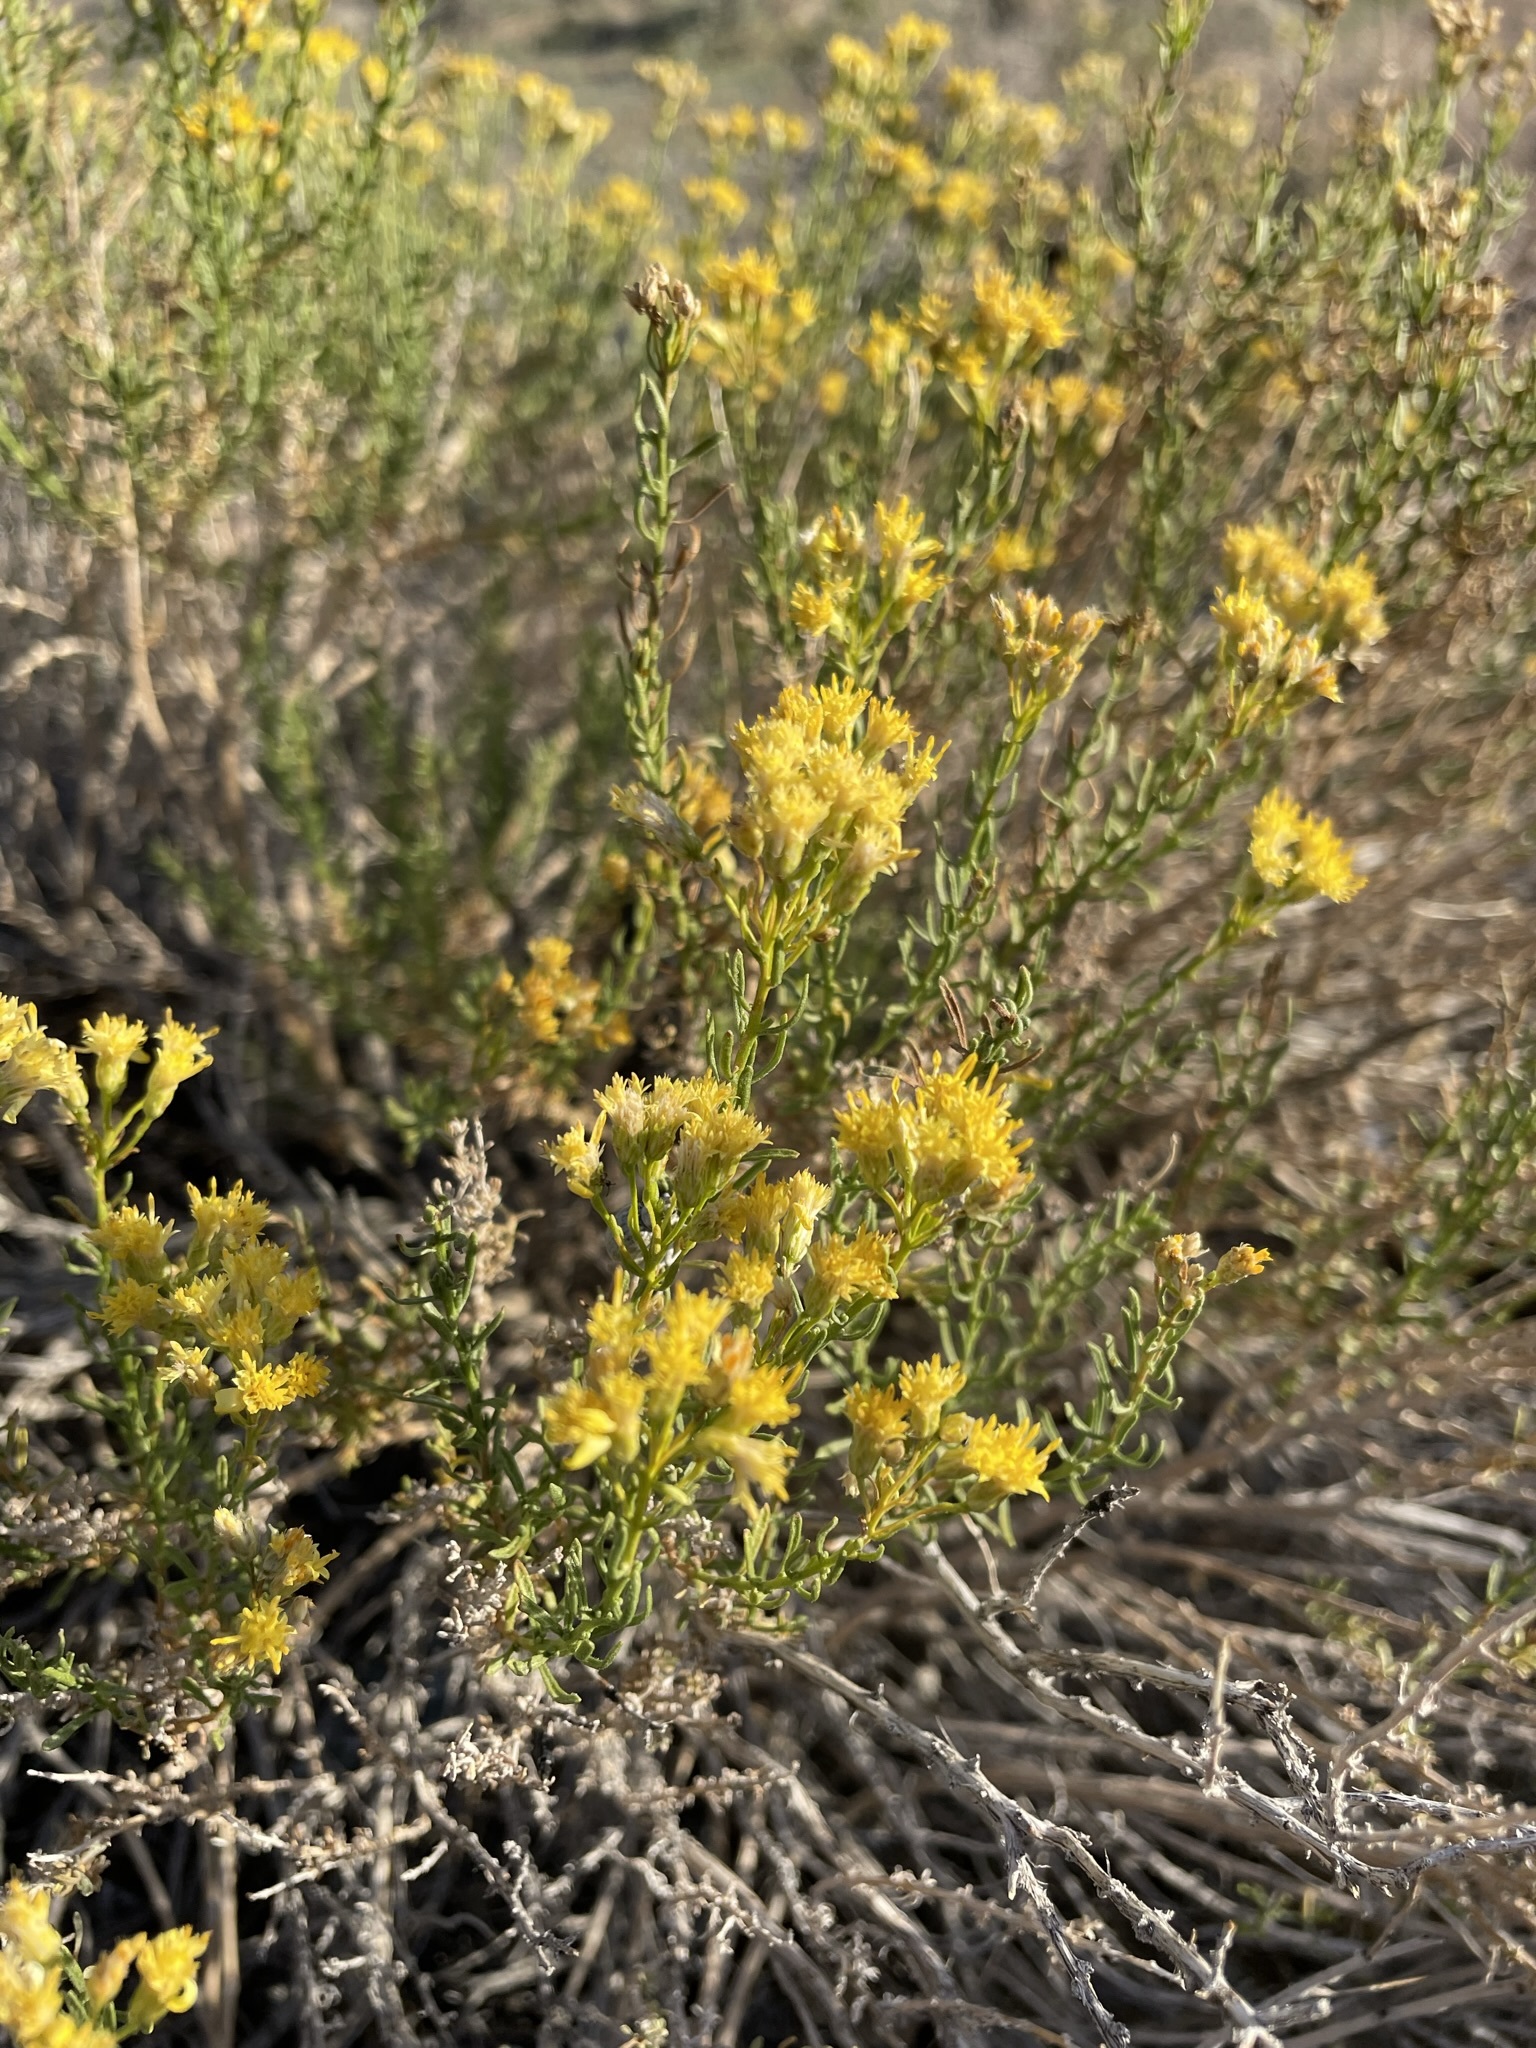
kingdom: Plantae
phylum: Tracheophyta
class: Magnoliopsida
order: Asterales
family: Asteraceae
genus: Ericameria
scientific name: Ericameria cooperi
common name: Cooper's goldenbush
